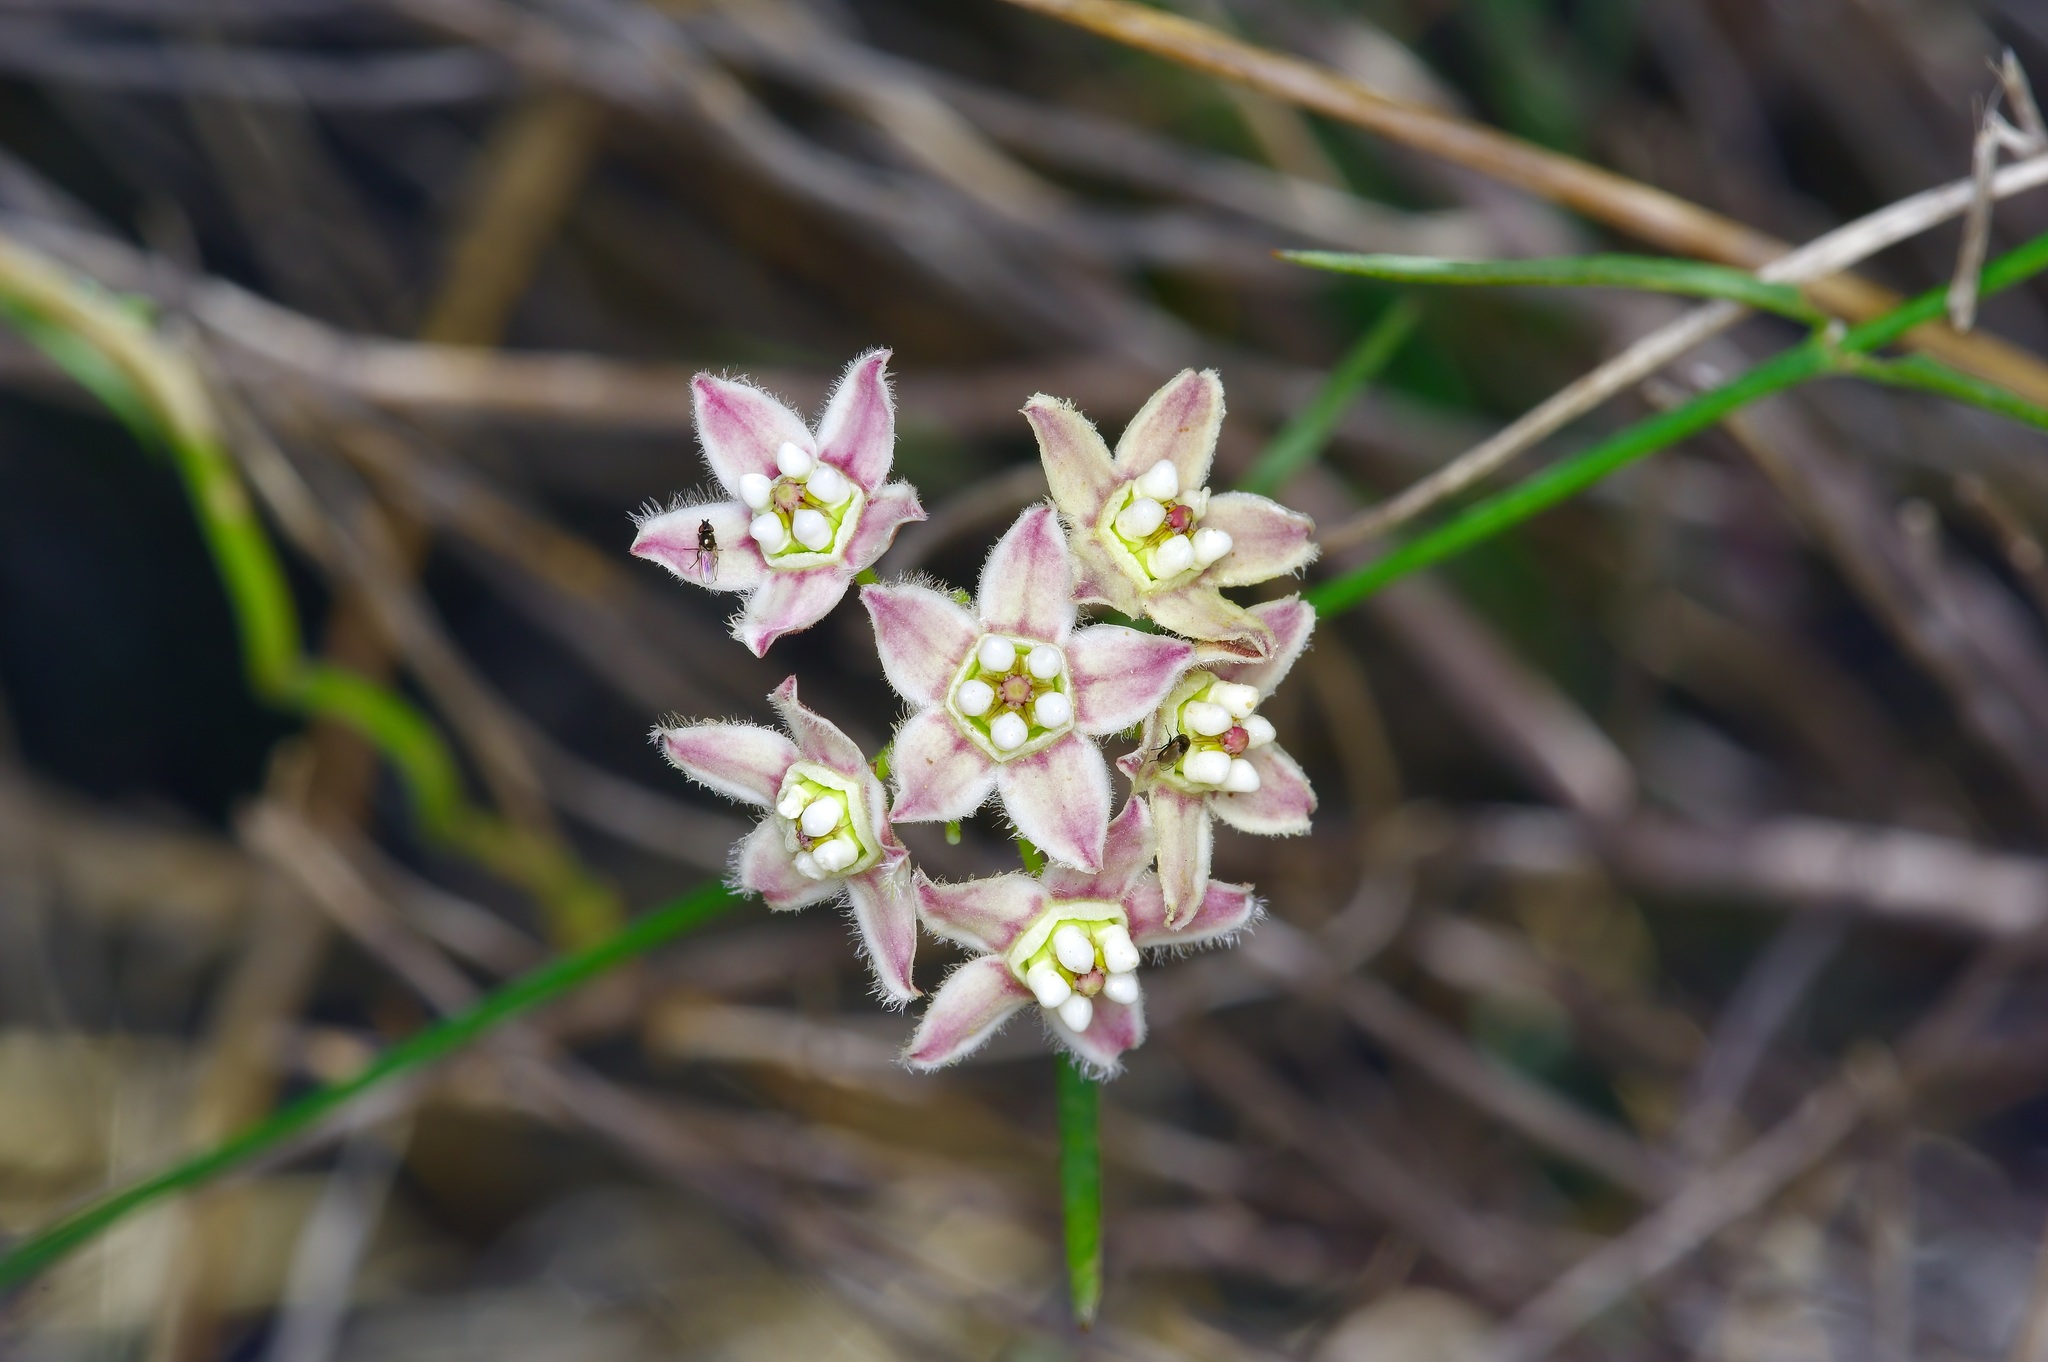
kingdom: Plantae
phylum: Tracheophyta
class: Magnoliopsida
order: Gentianales
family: Apocynaceae
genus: Funastrum
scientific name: Funastrum heterophyllum
